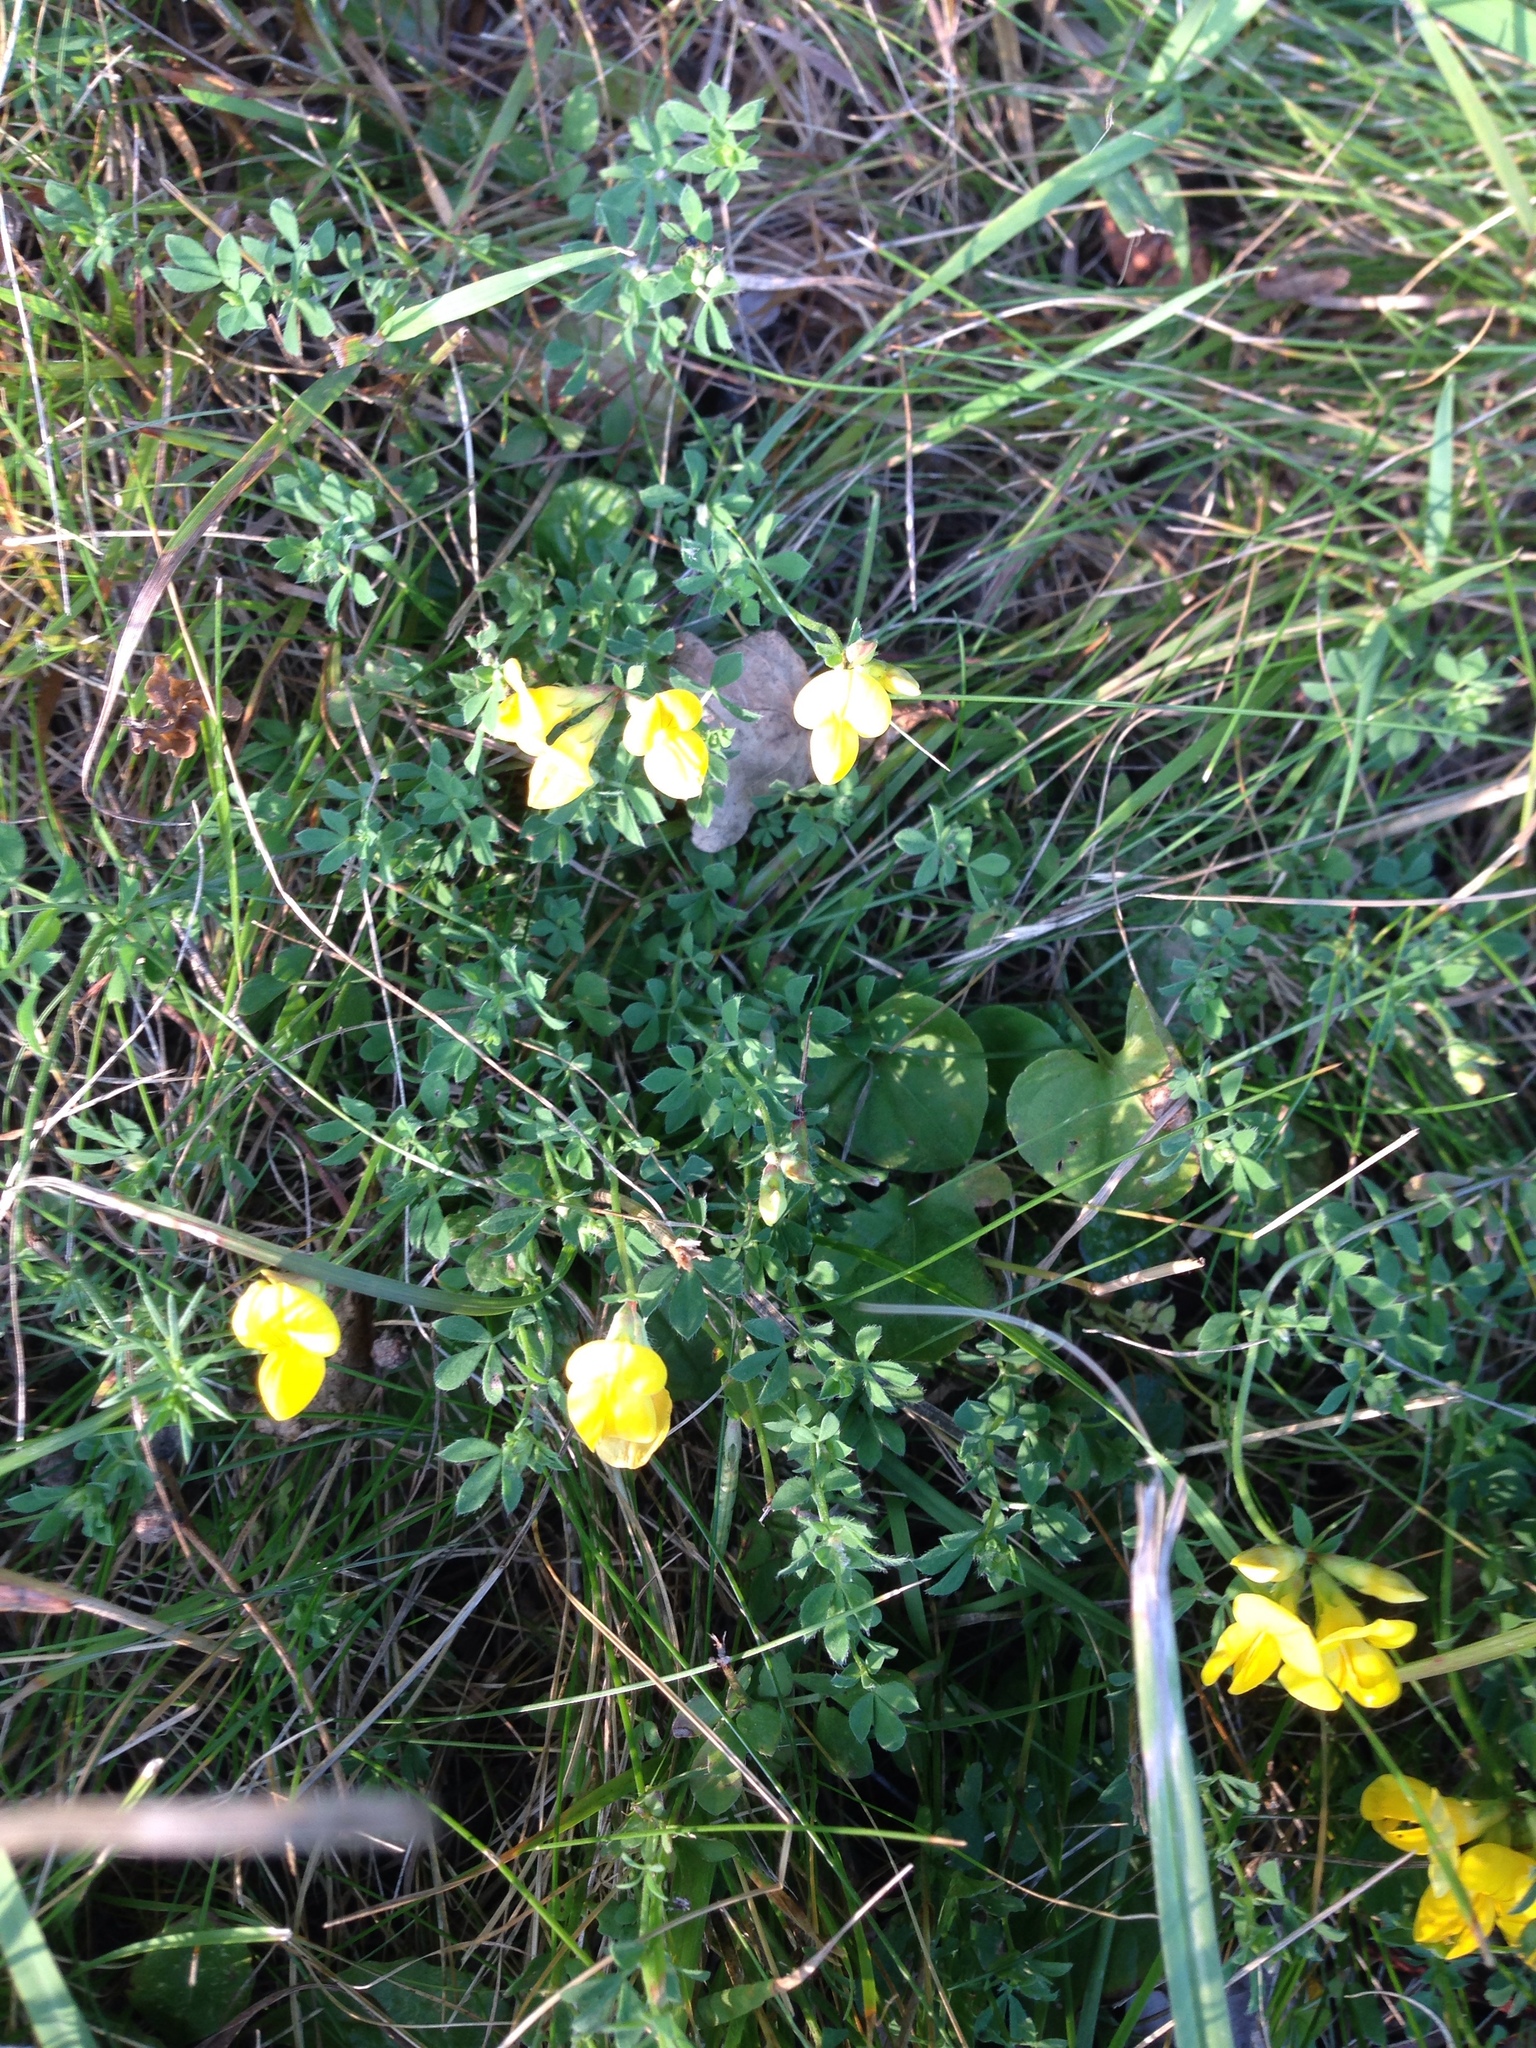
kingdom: Plantae
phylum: Tracheophyta
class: Magnoliopsida
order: Fabales
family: Fabaceae
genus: Lotus
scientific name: Lotus corniculatus
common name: Common bird's-foot-trefoil
